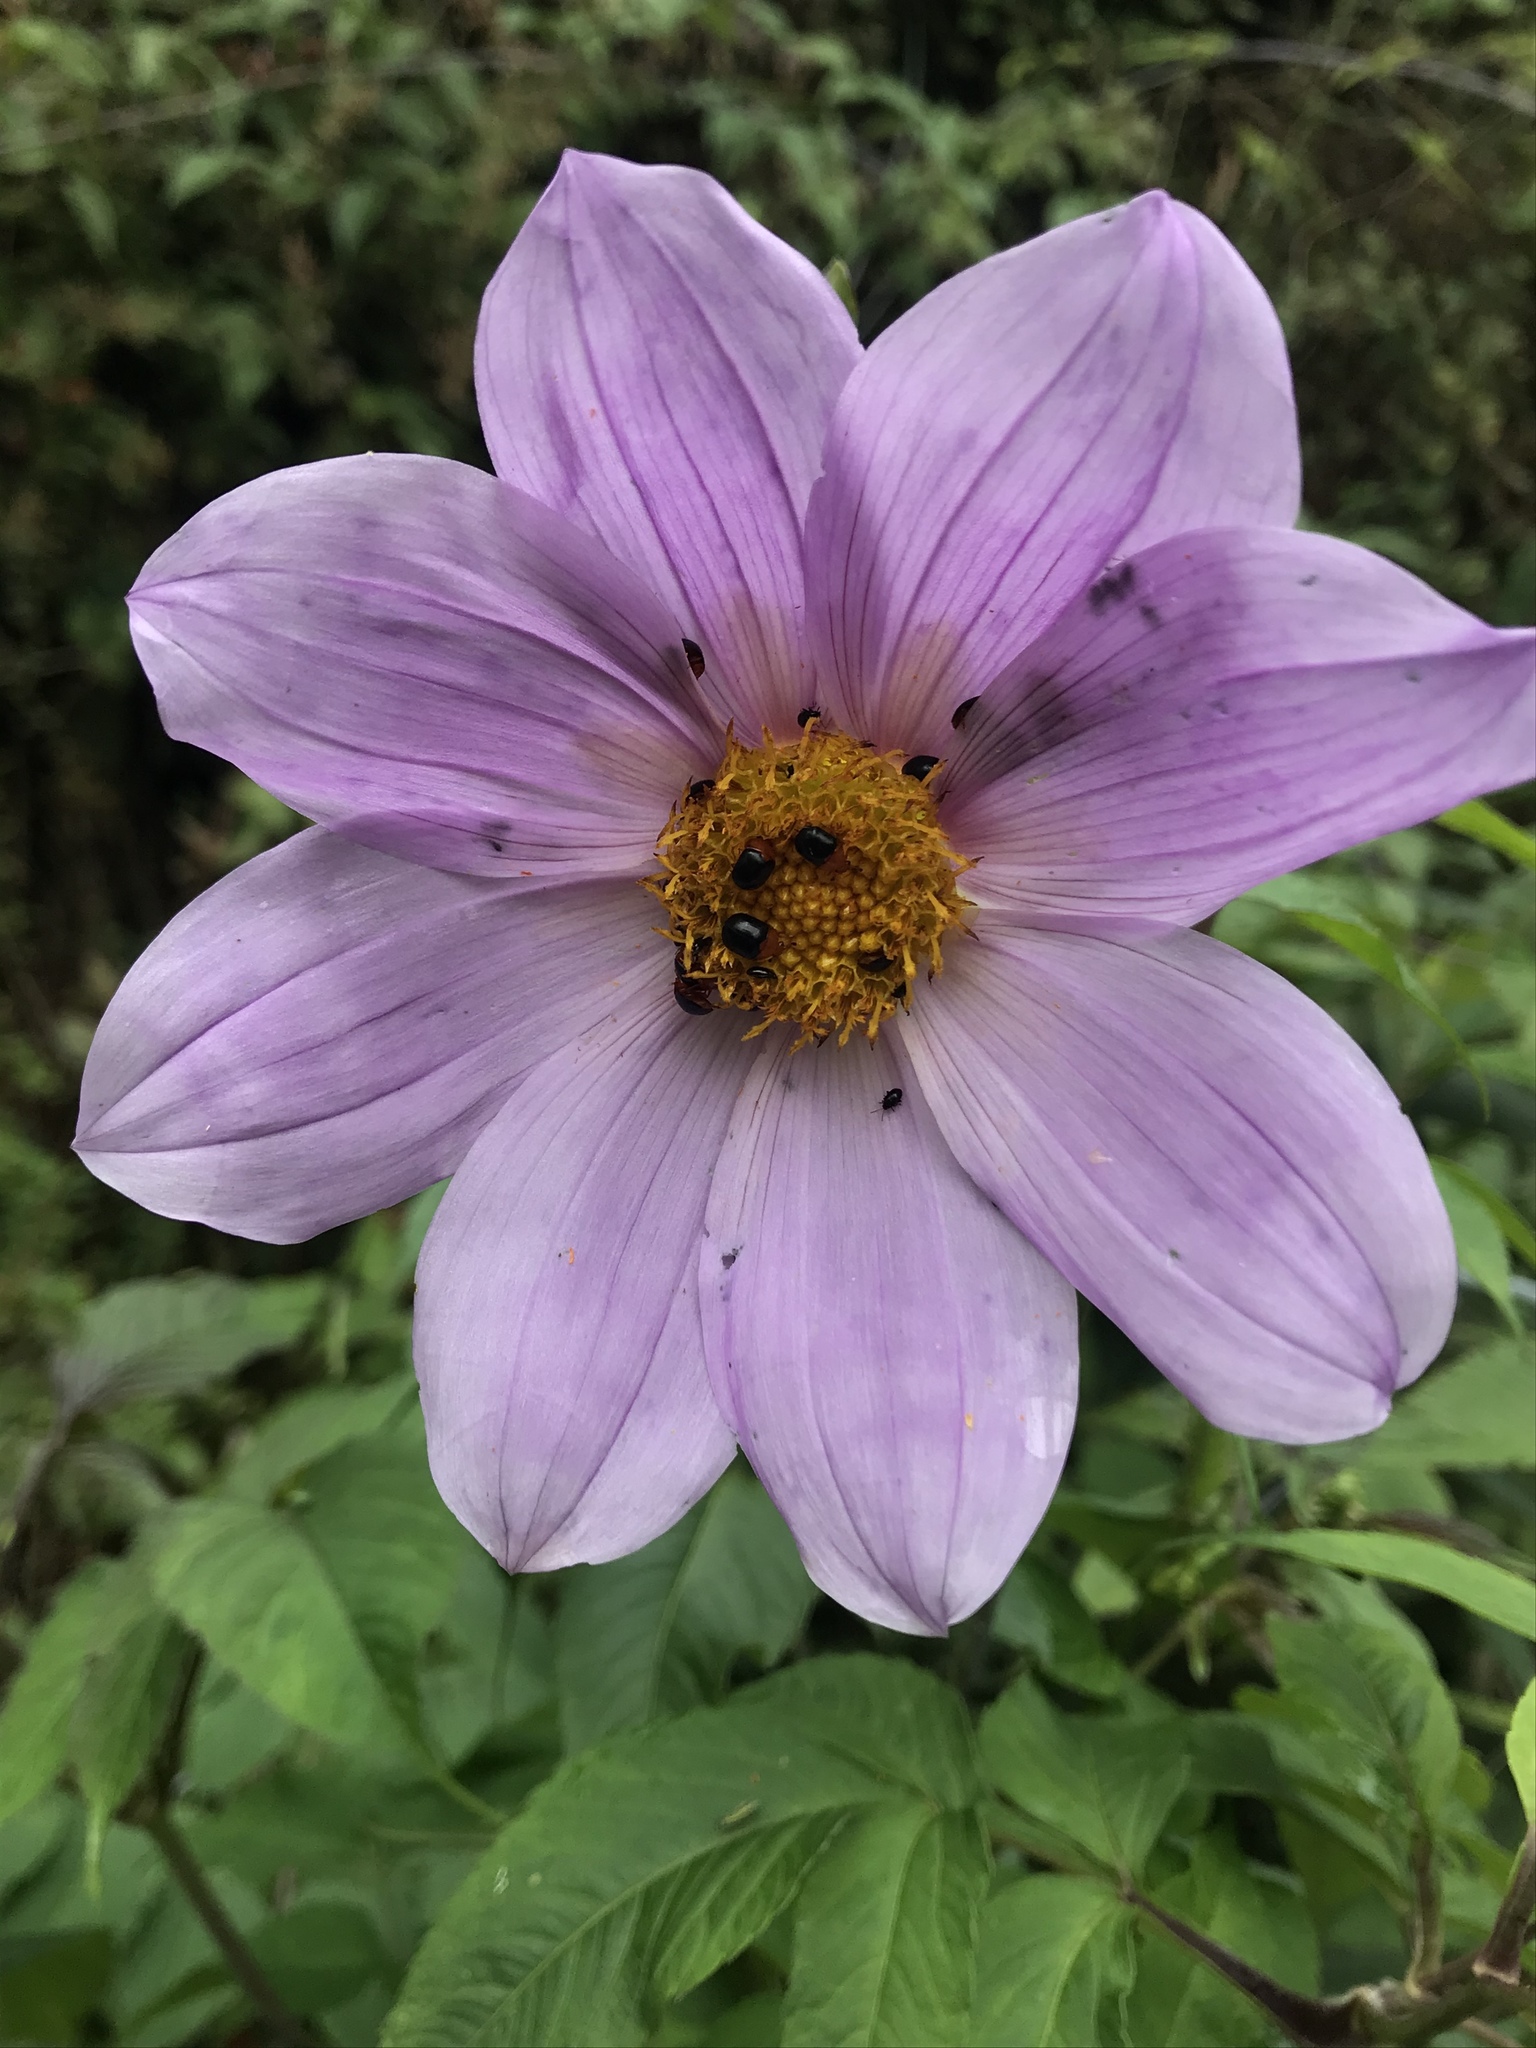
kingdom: Plantae
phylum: Tracheophyta
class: Magnoliopsida
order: Asterales
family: Asteraceae
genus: Dahlia
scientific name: Dahlia imperialis
